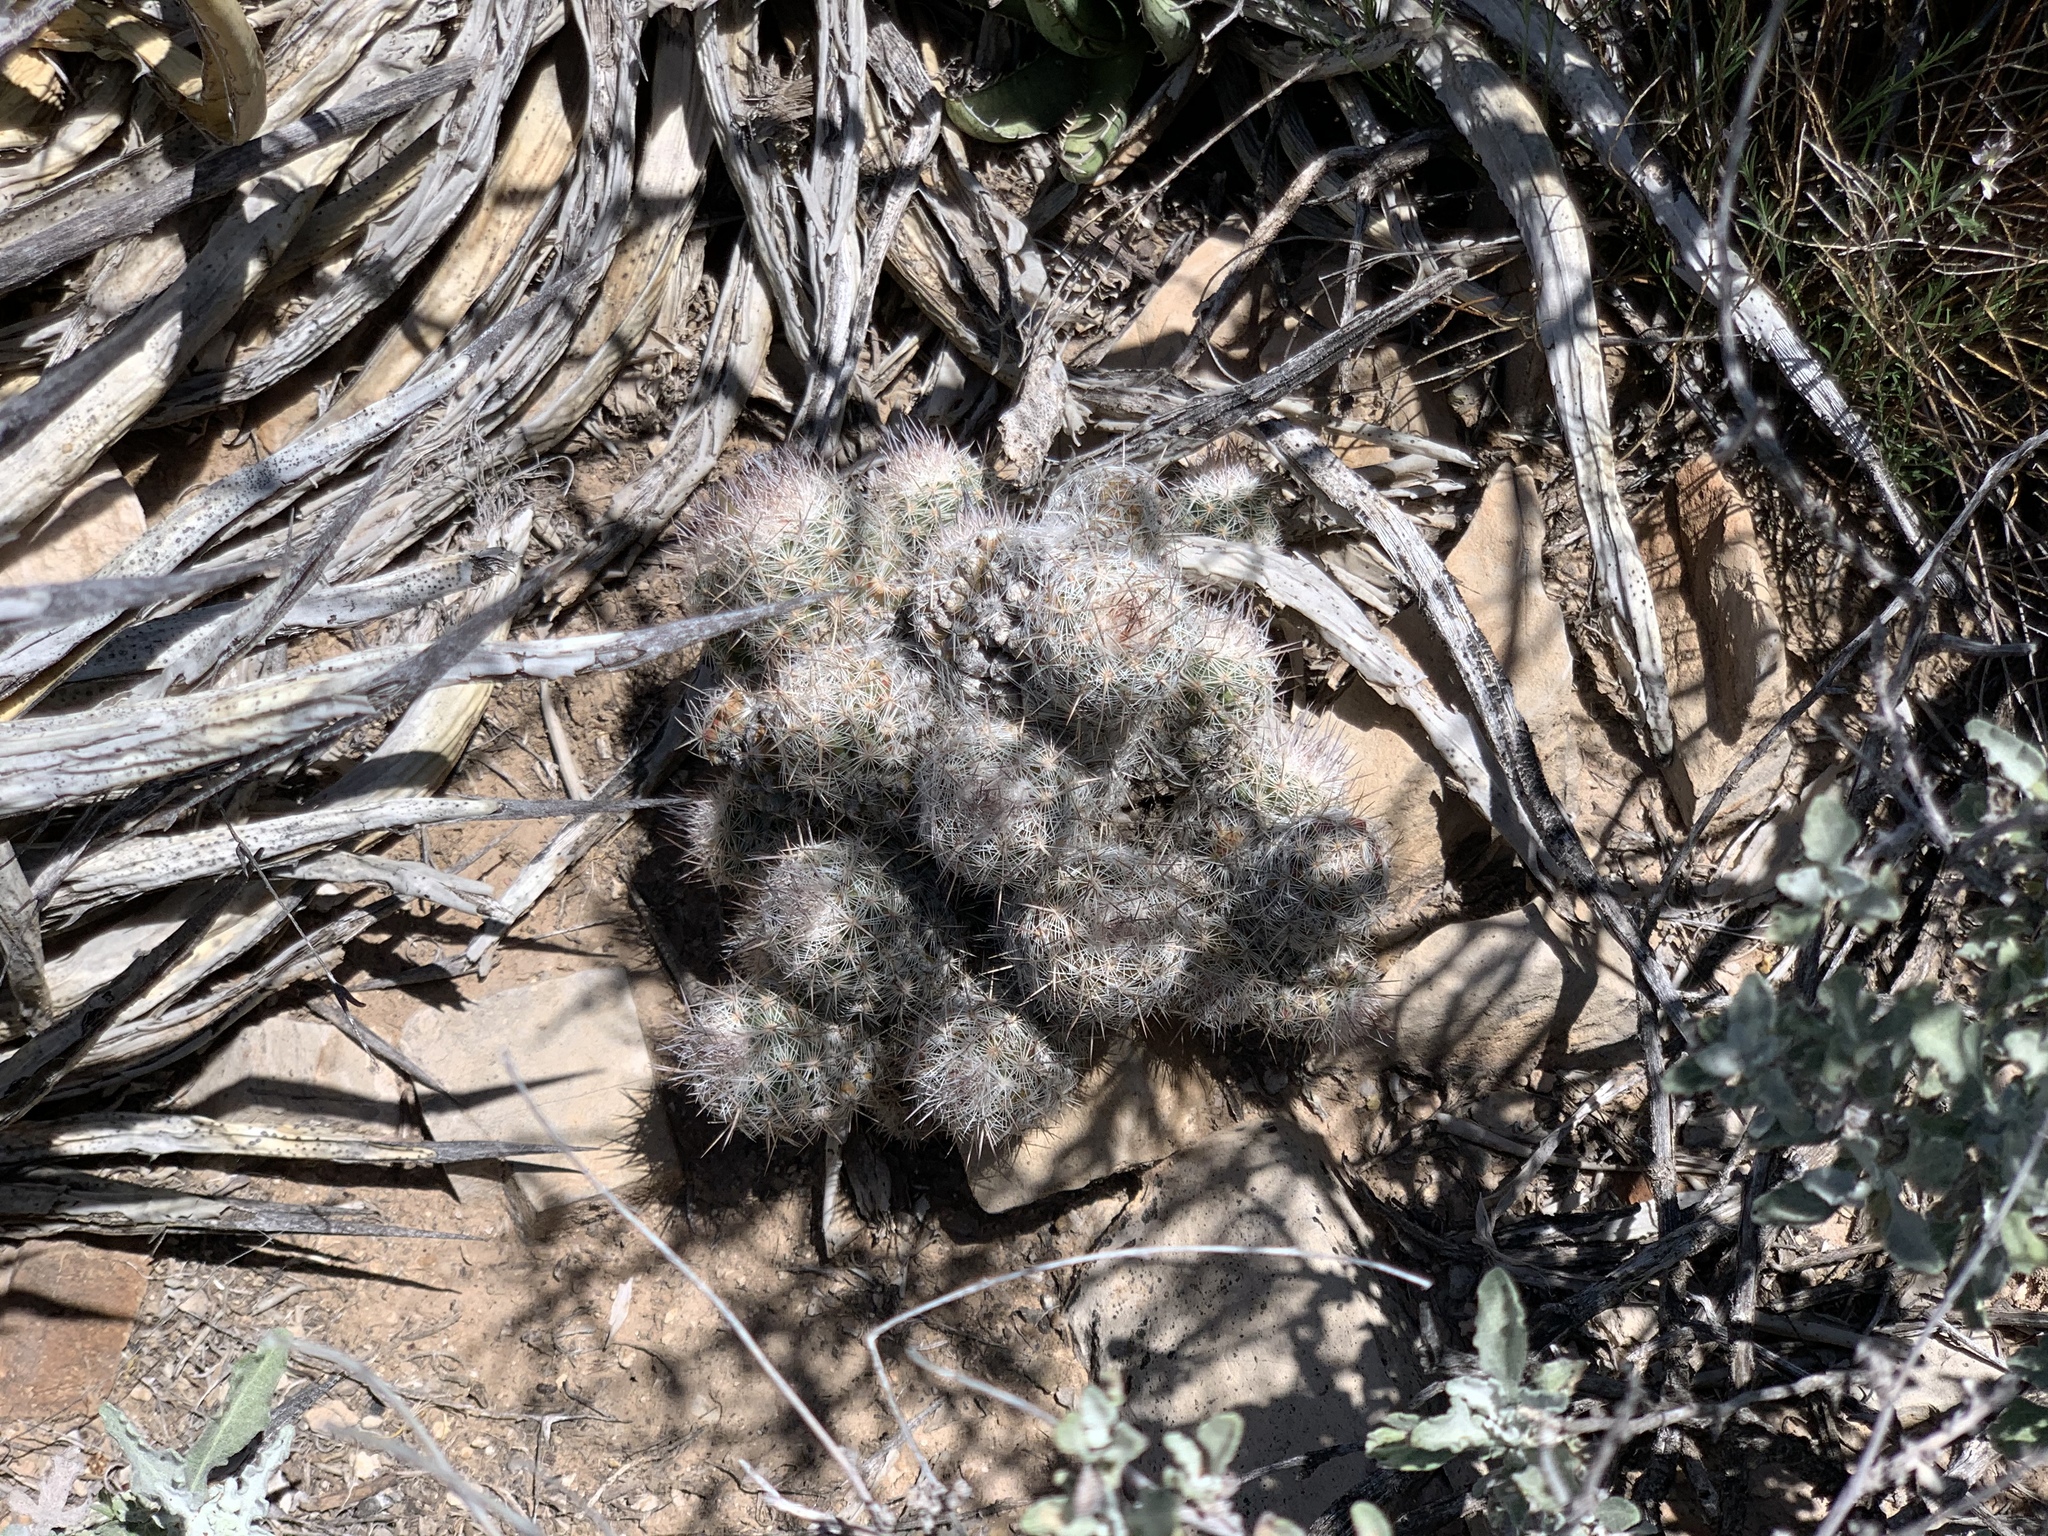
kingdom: Plantae
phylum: Tracheophyta
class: Magnoliopsida
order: Caryophyllales
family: Cactaceae
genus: Pelecyphora
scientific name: Pelecyphora tuberculosa
